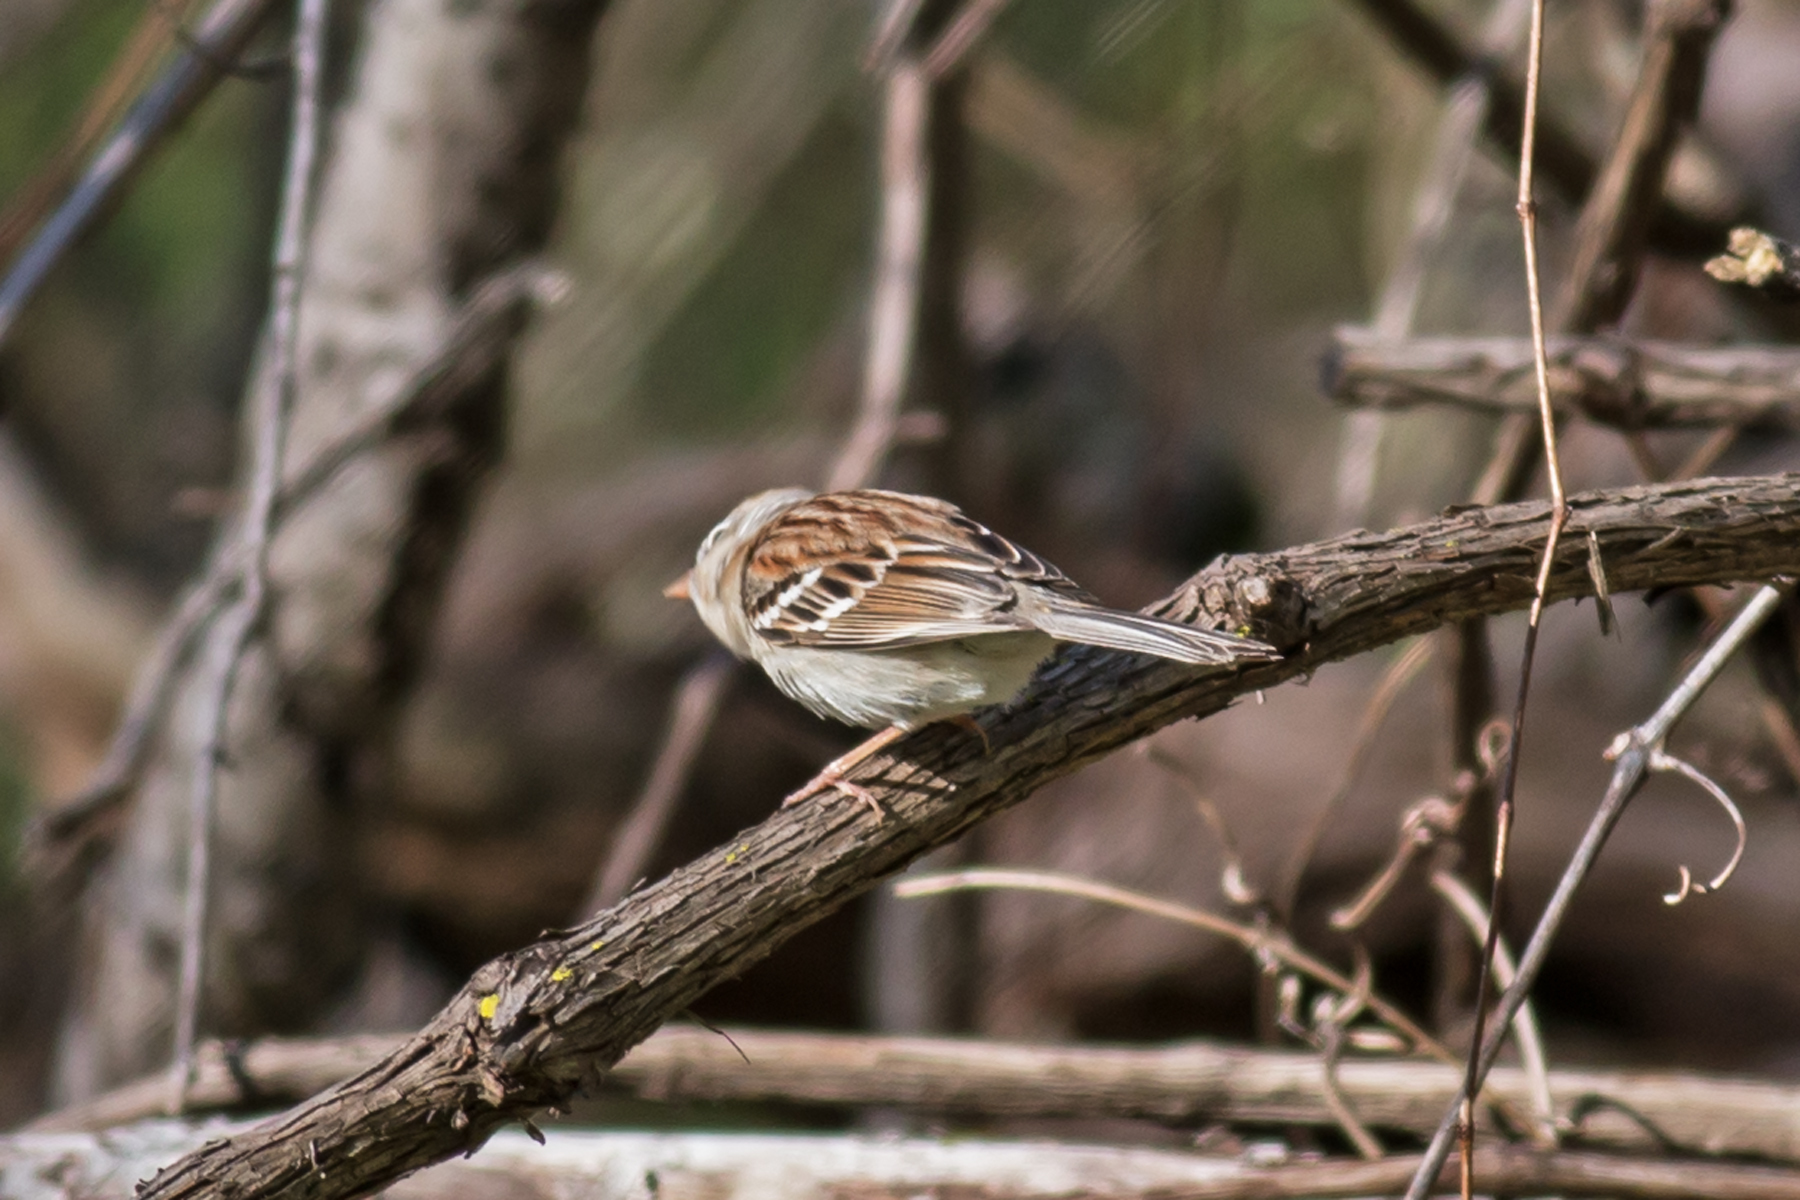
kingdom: Animalia
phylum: Chordata
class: Aves
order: Passeriformes
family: Passerellidae
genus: Spizella
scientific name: Spizella pusilla
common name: Field sparrow
